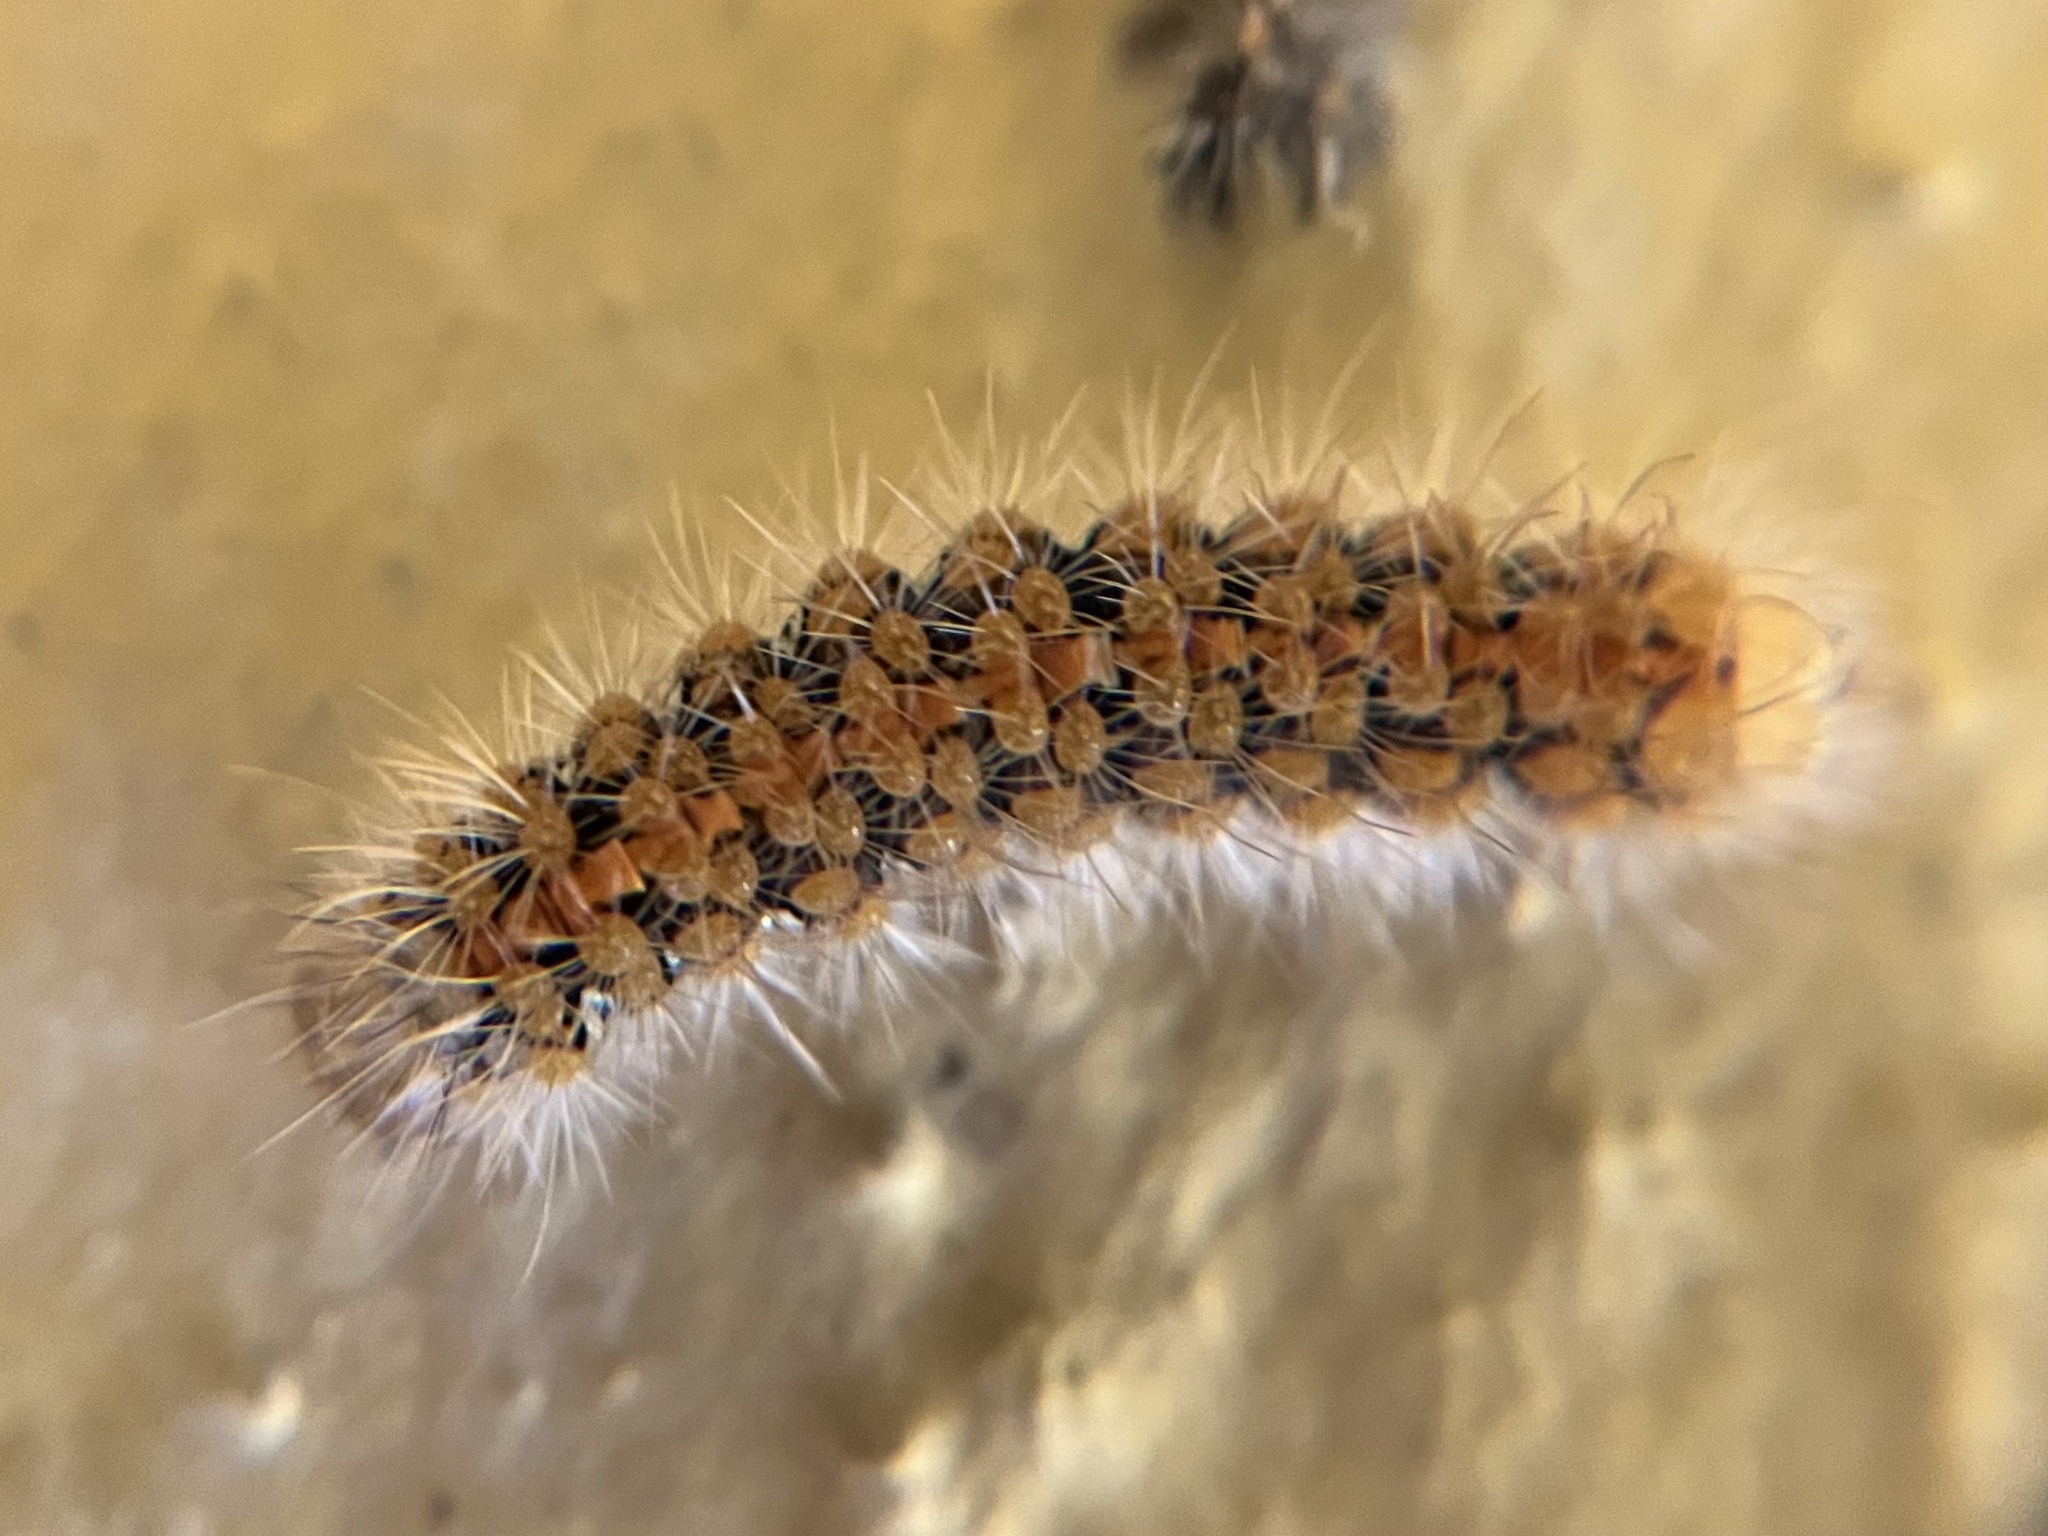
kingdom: Animalia
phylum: Arthropoda
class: Insecta
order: Lepidoptera
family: Erebidae
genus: Euplagia
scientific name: Euplagia quadripunctaria
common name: Jersey tiger
